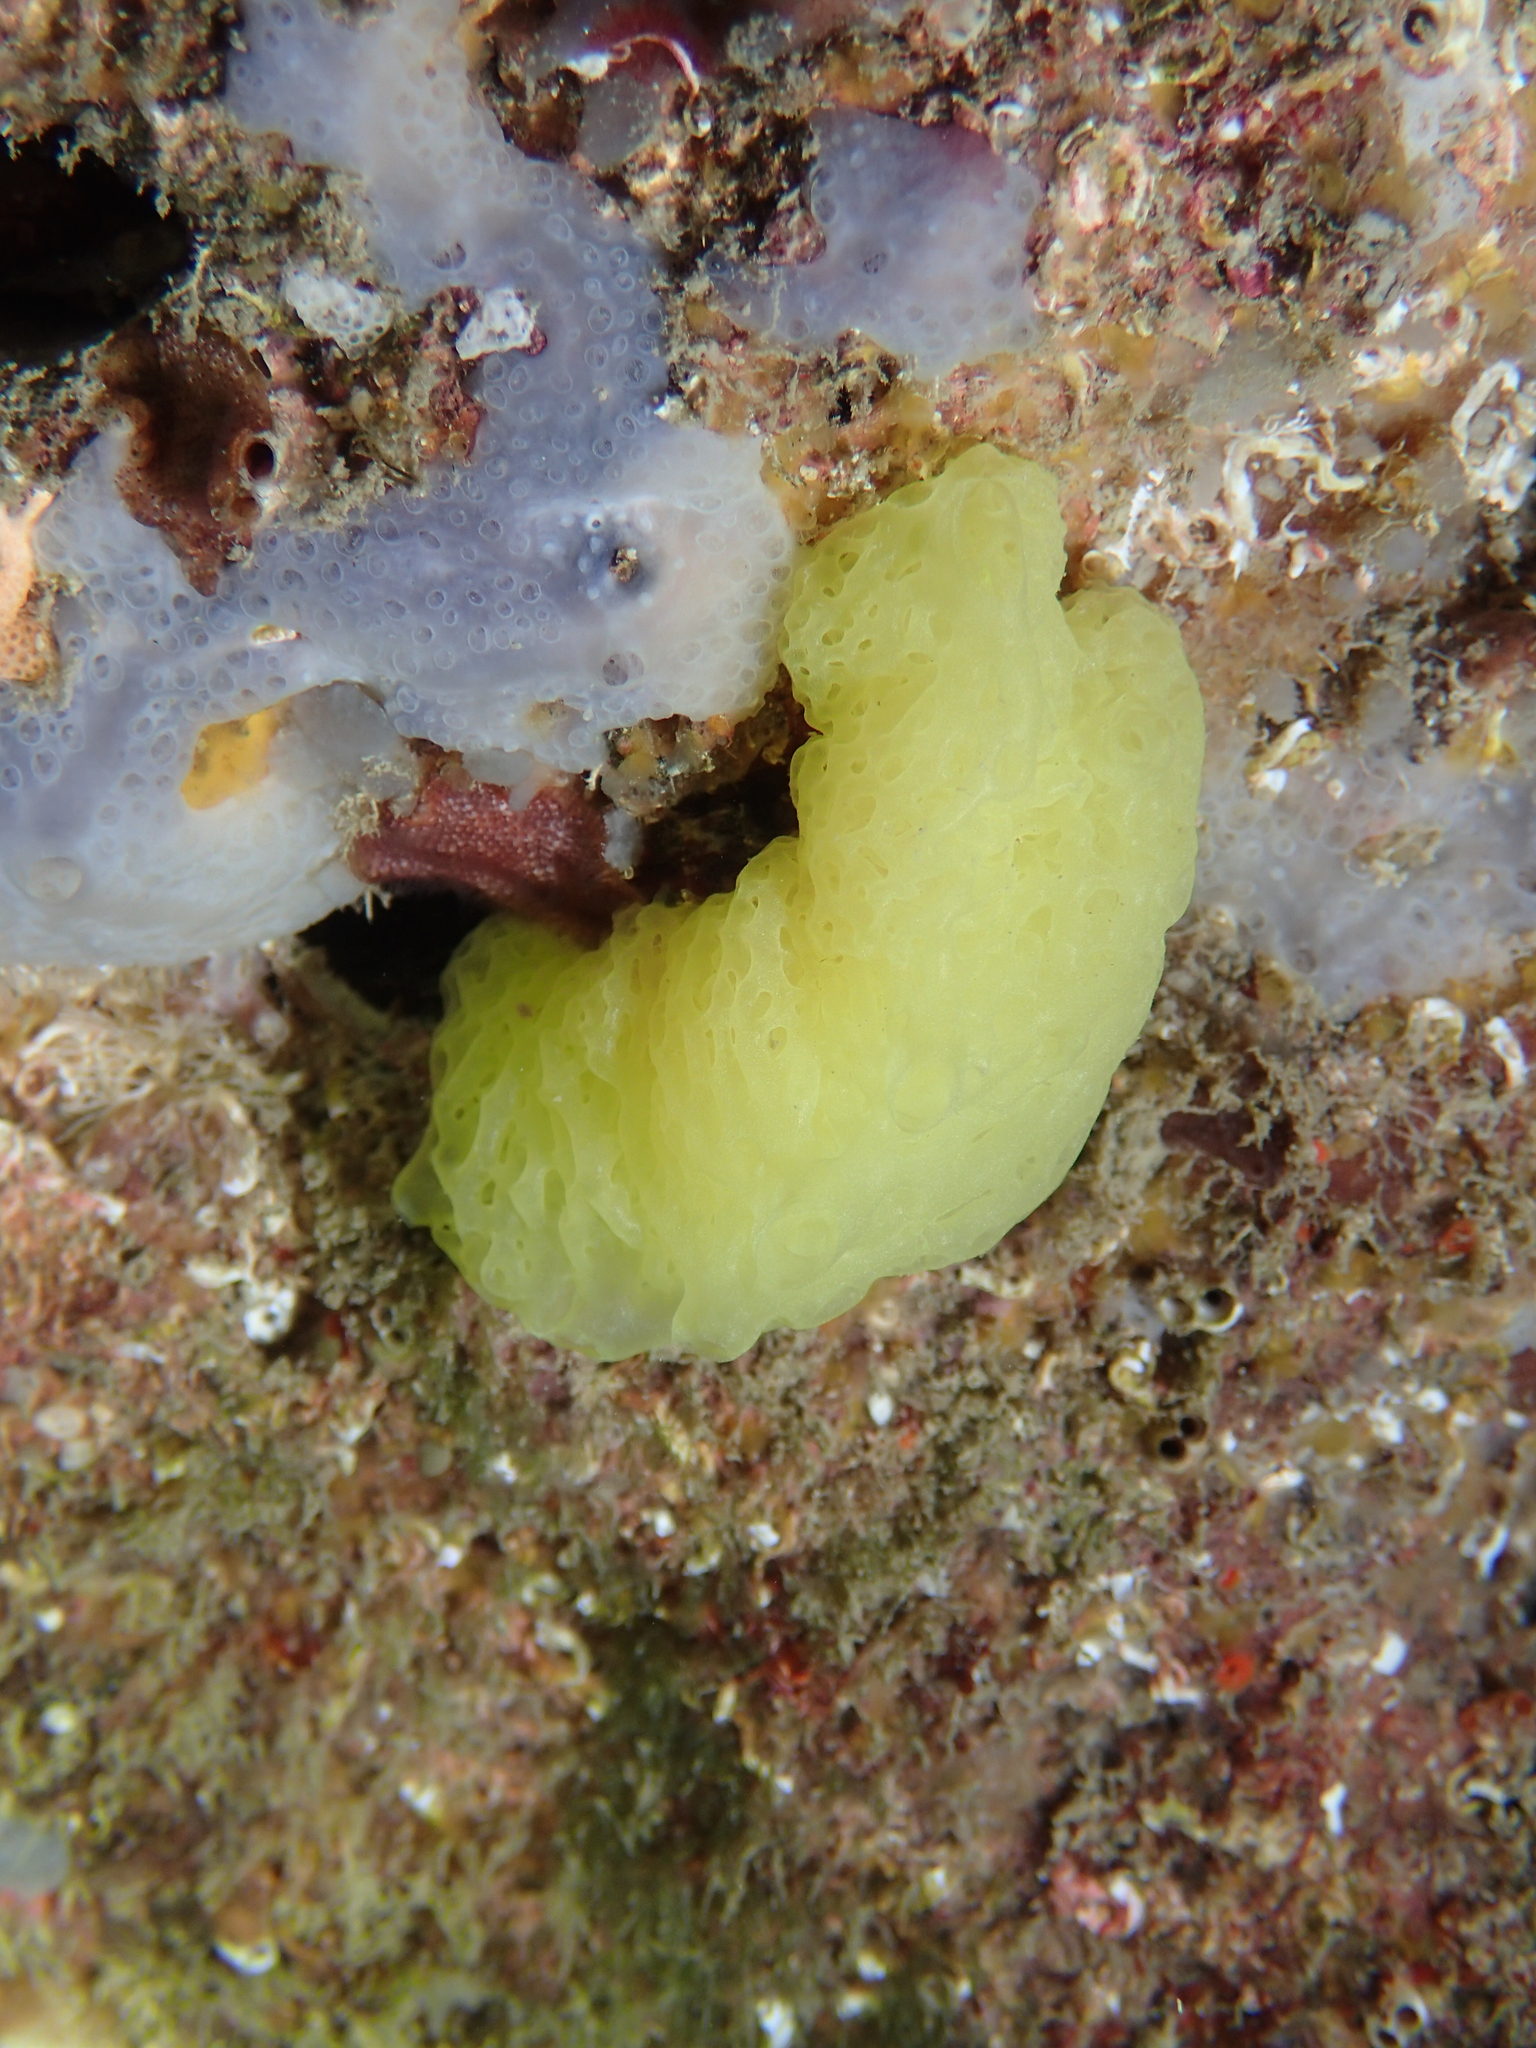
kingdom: Animalia
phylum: Porifera
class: Calcarea
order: Clathrinida
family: Clathrinidae
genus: Clathrina
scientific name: Clathrina clathrus
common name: Yellow clathrina
